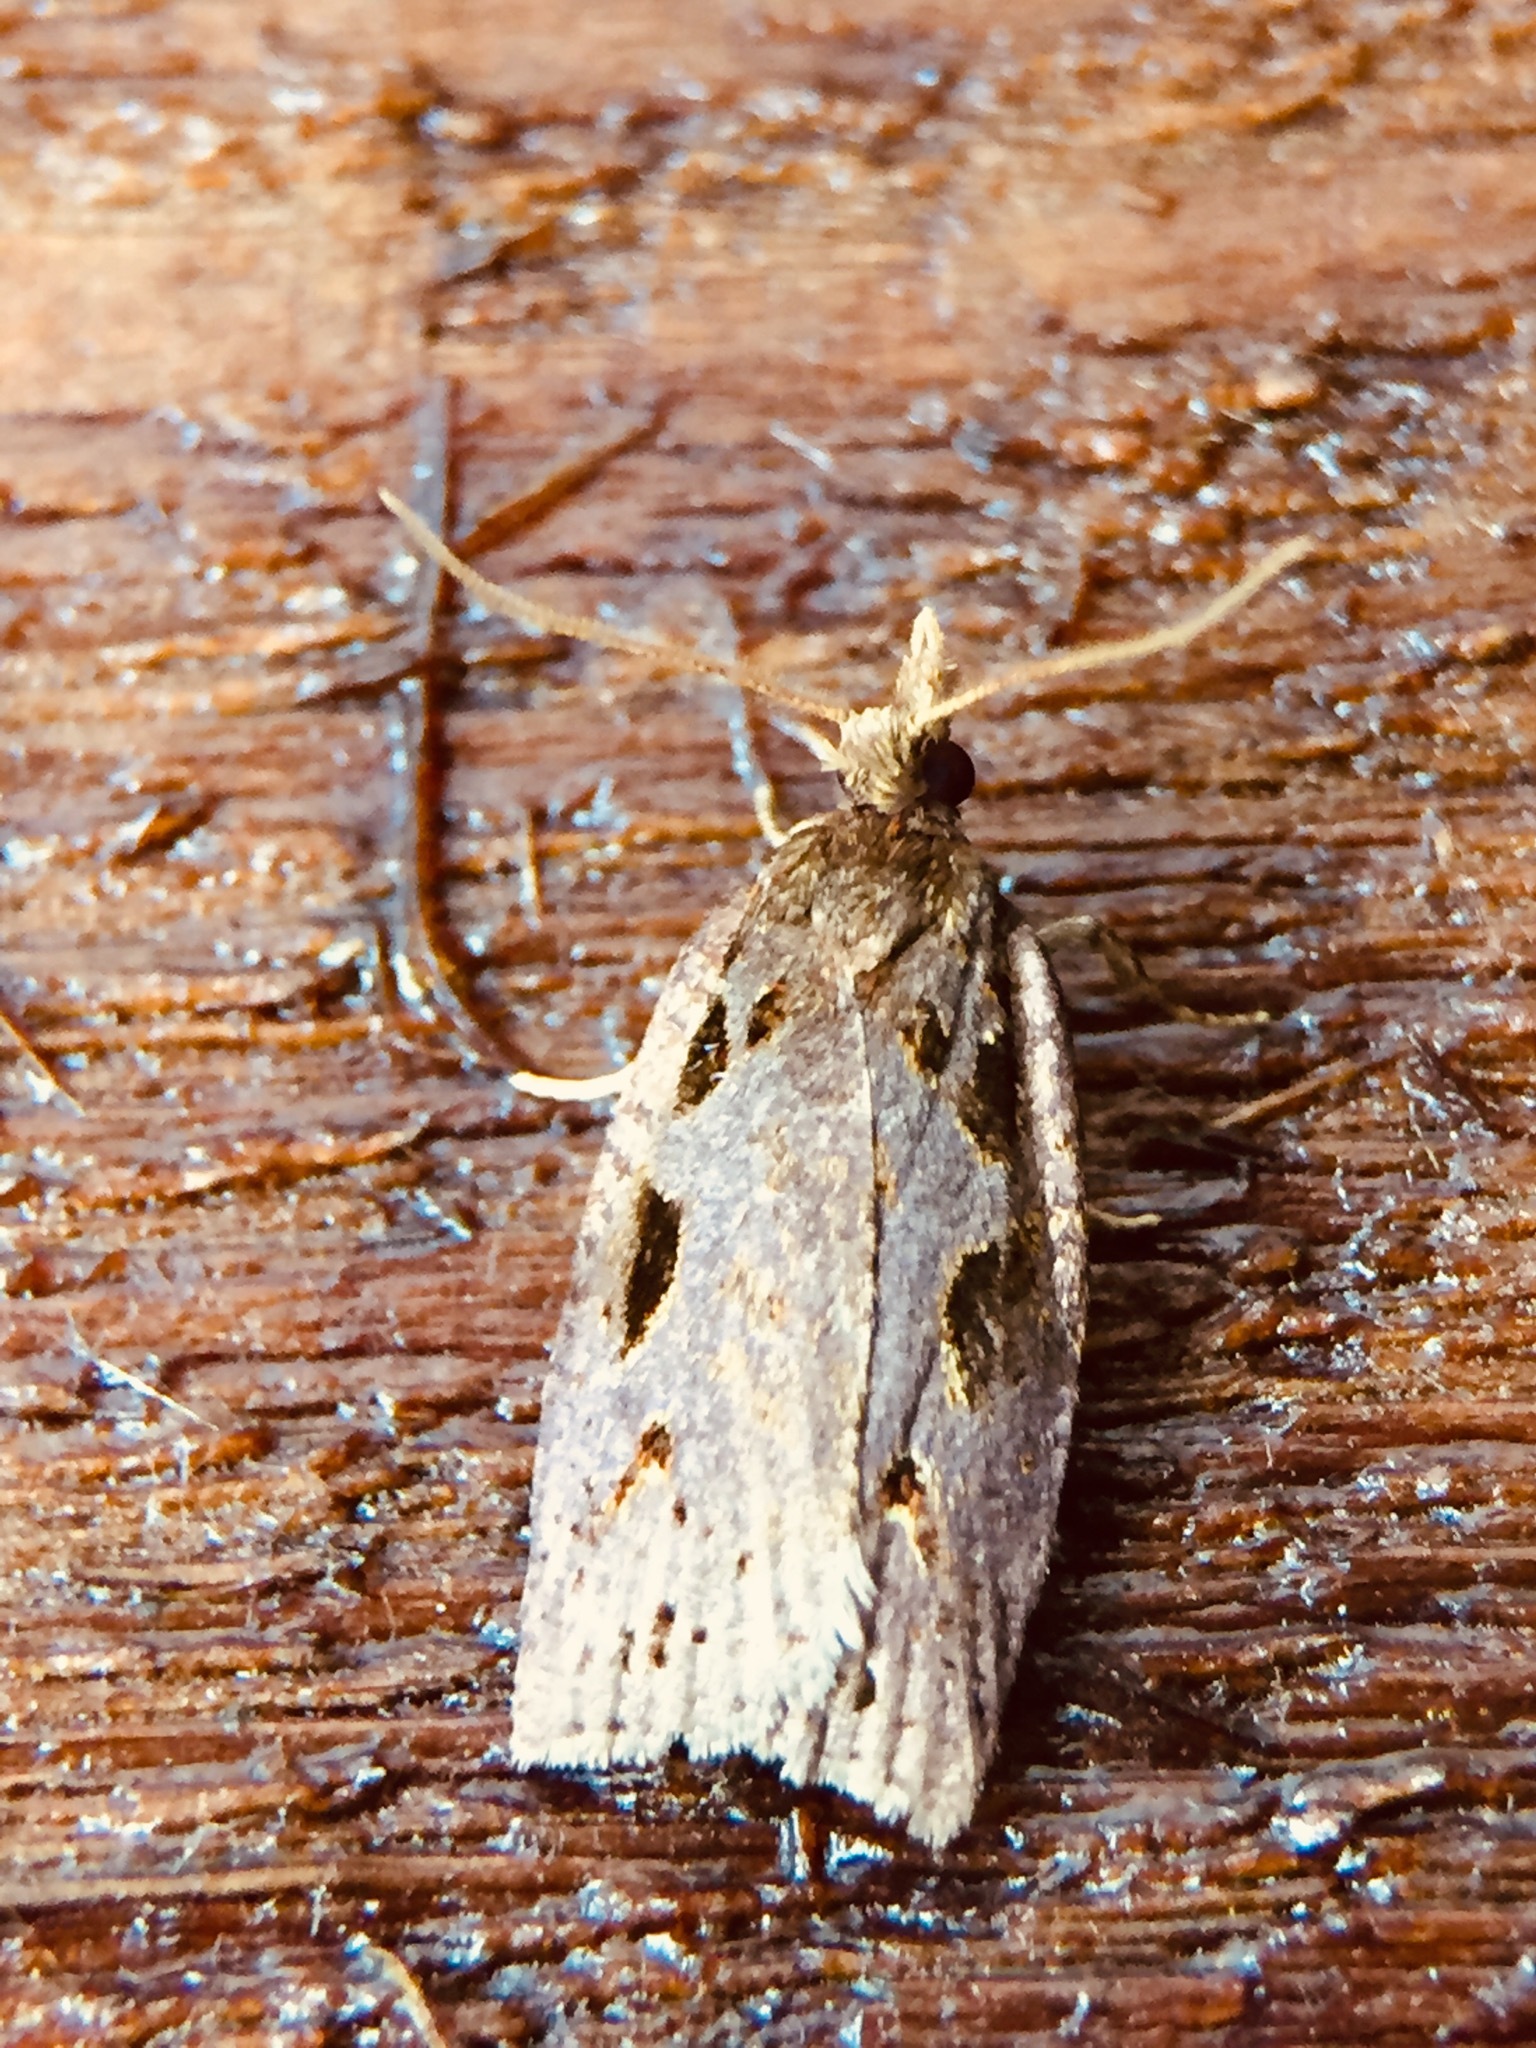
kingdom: Animalia
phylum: Arthropoda
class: Insecta
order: Lepidoptera
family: Tortricidae
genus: Ctenopseustis
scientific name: Ctenopseustis fraterna
